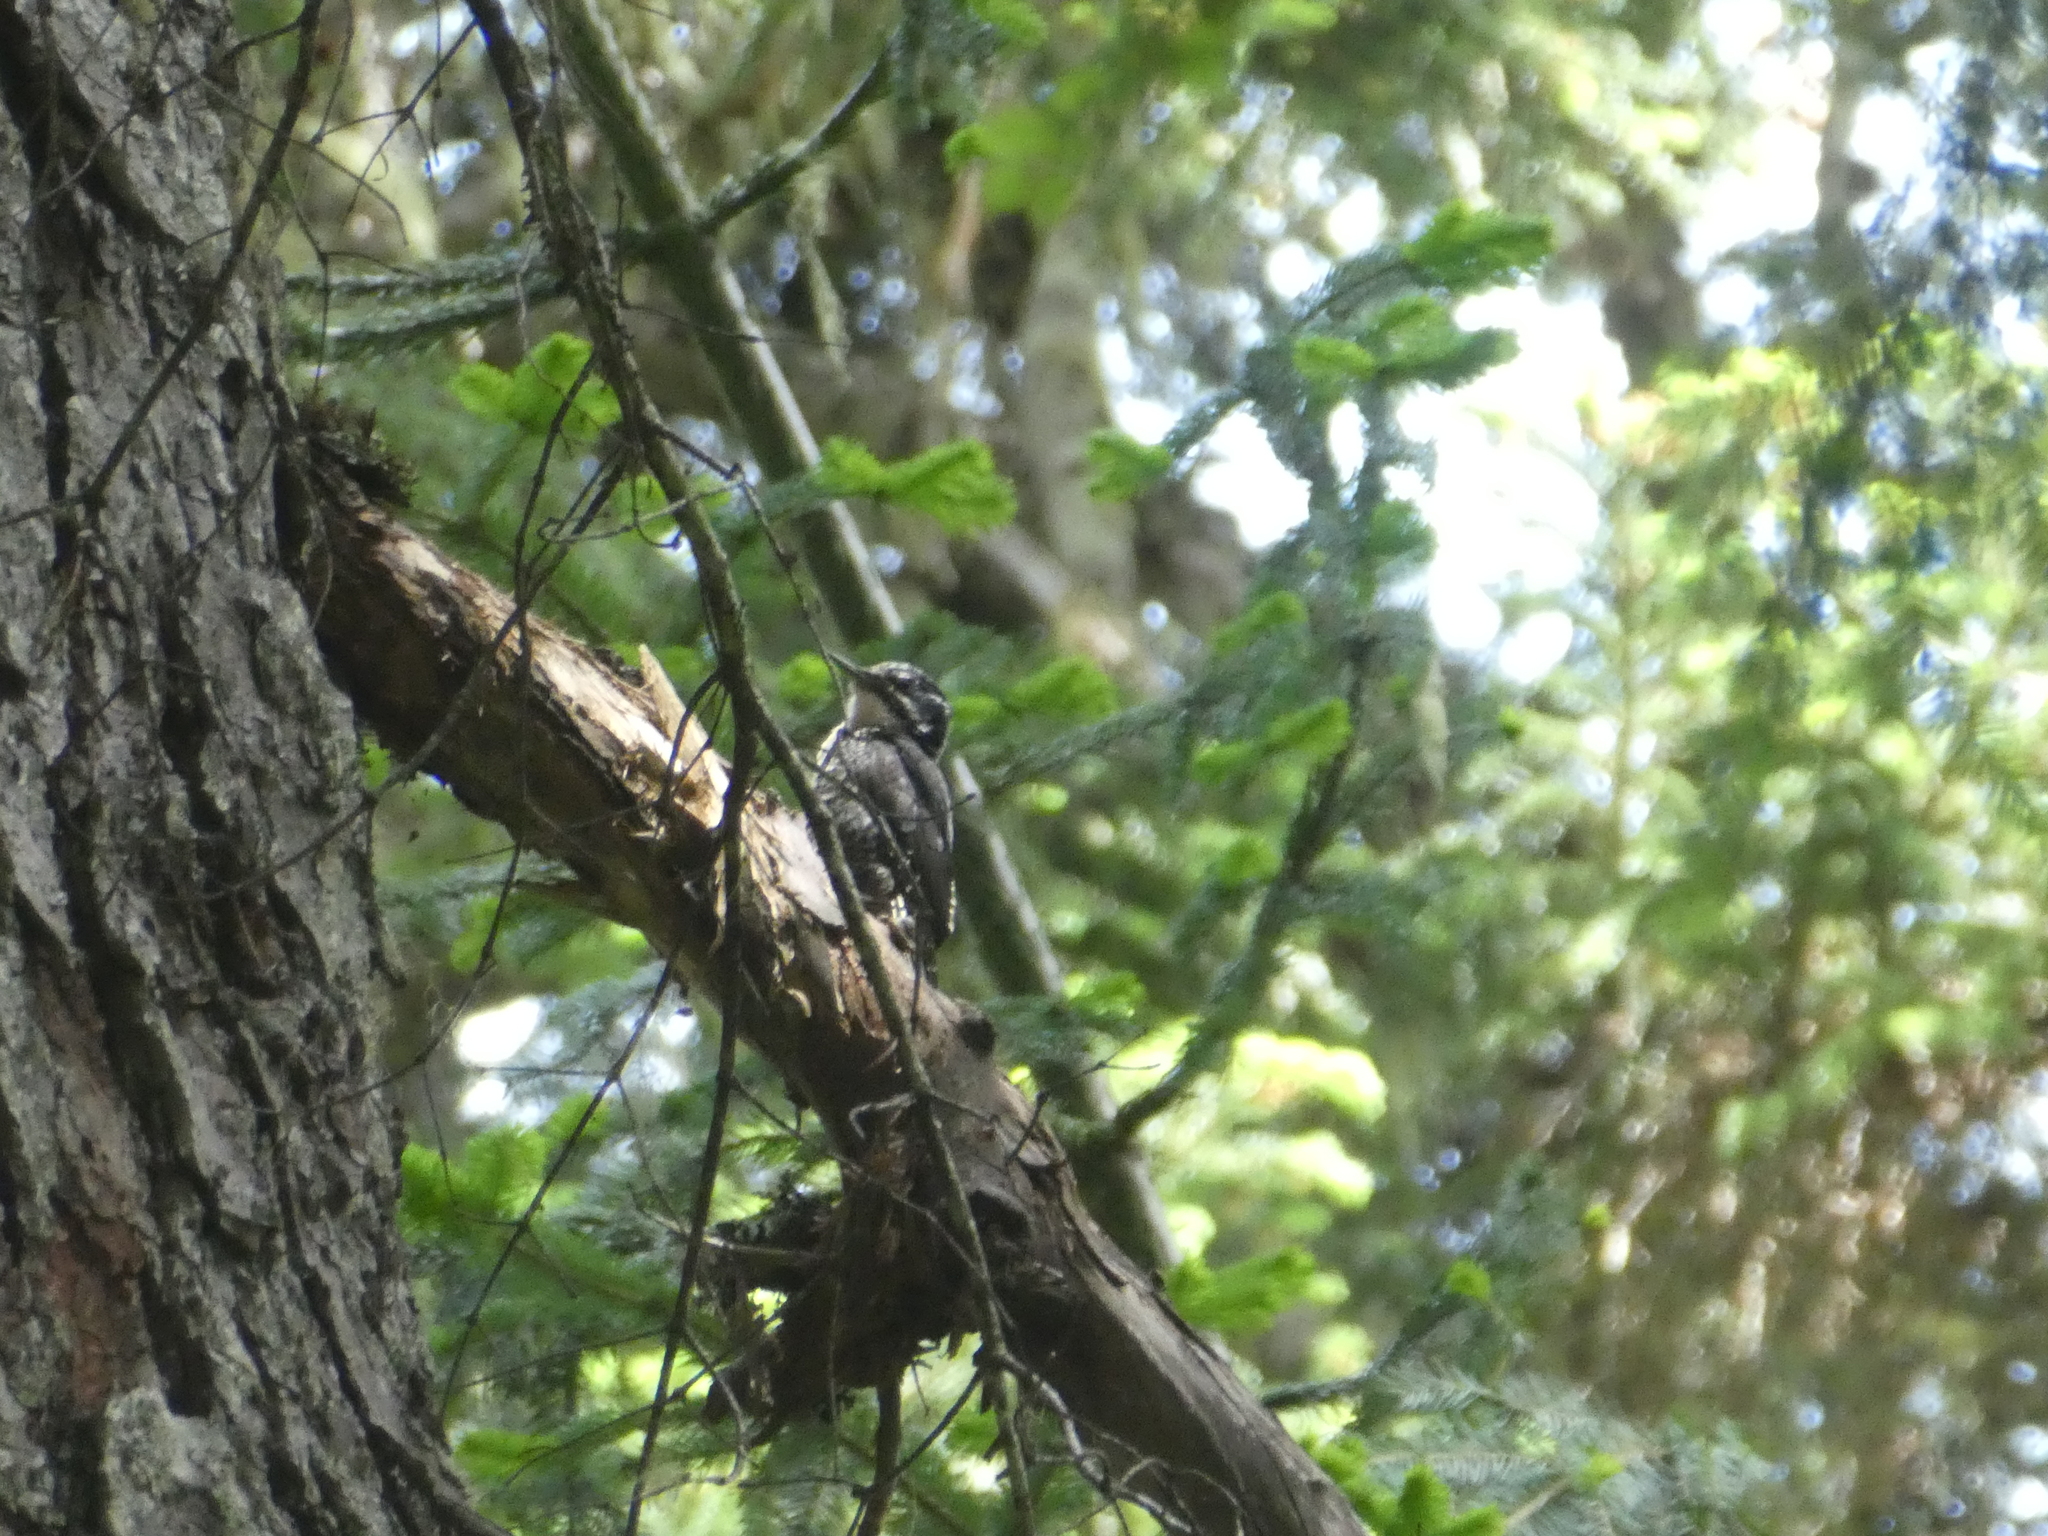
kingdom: Animalia
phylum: Chordata
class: Aves
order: Piciformes
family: Picidae
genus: Picoides
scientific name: Picoides dorsalis
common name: American three-toed woodpecker
